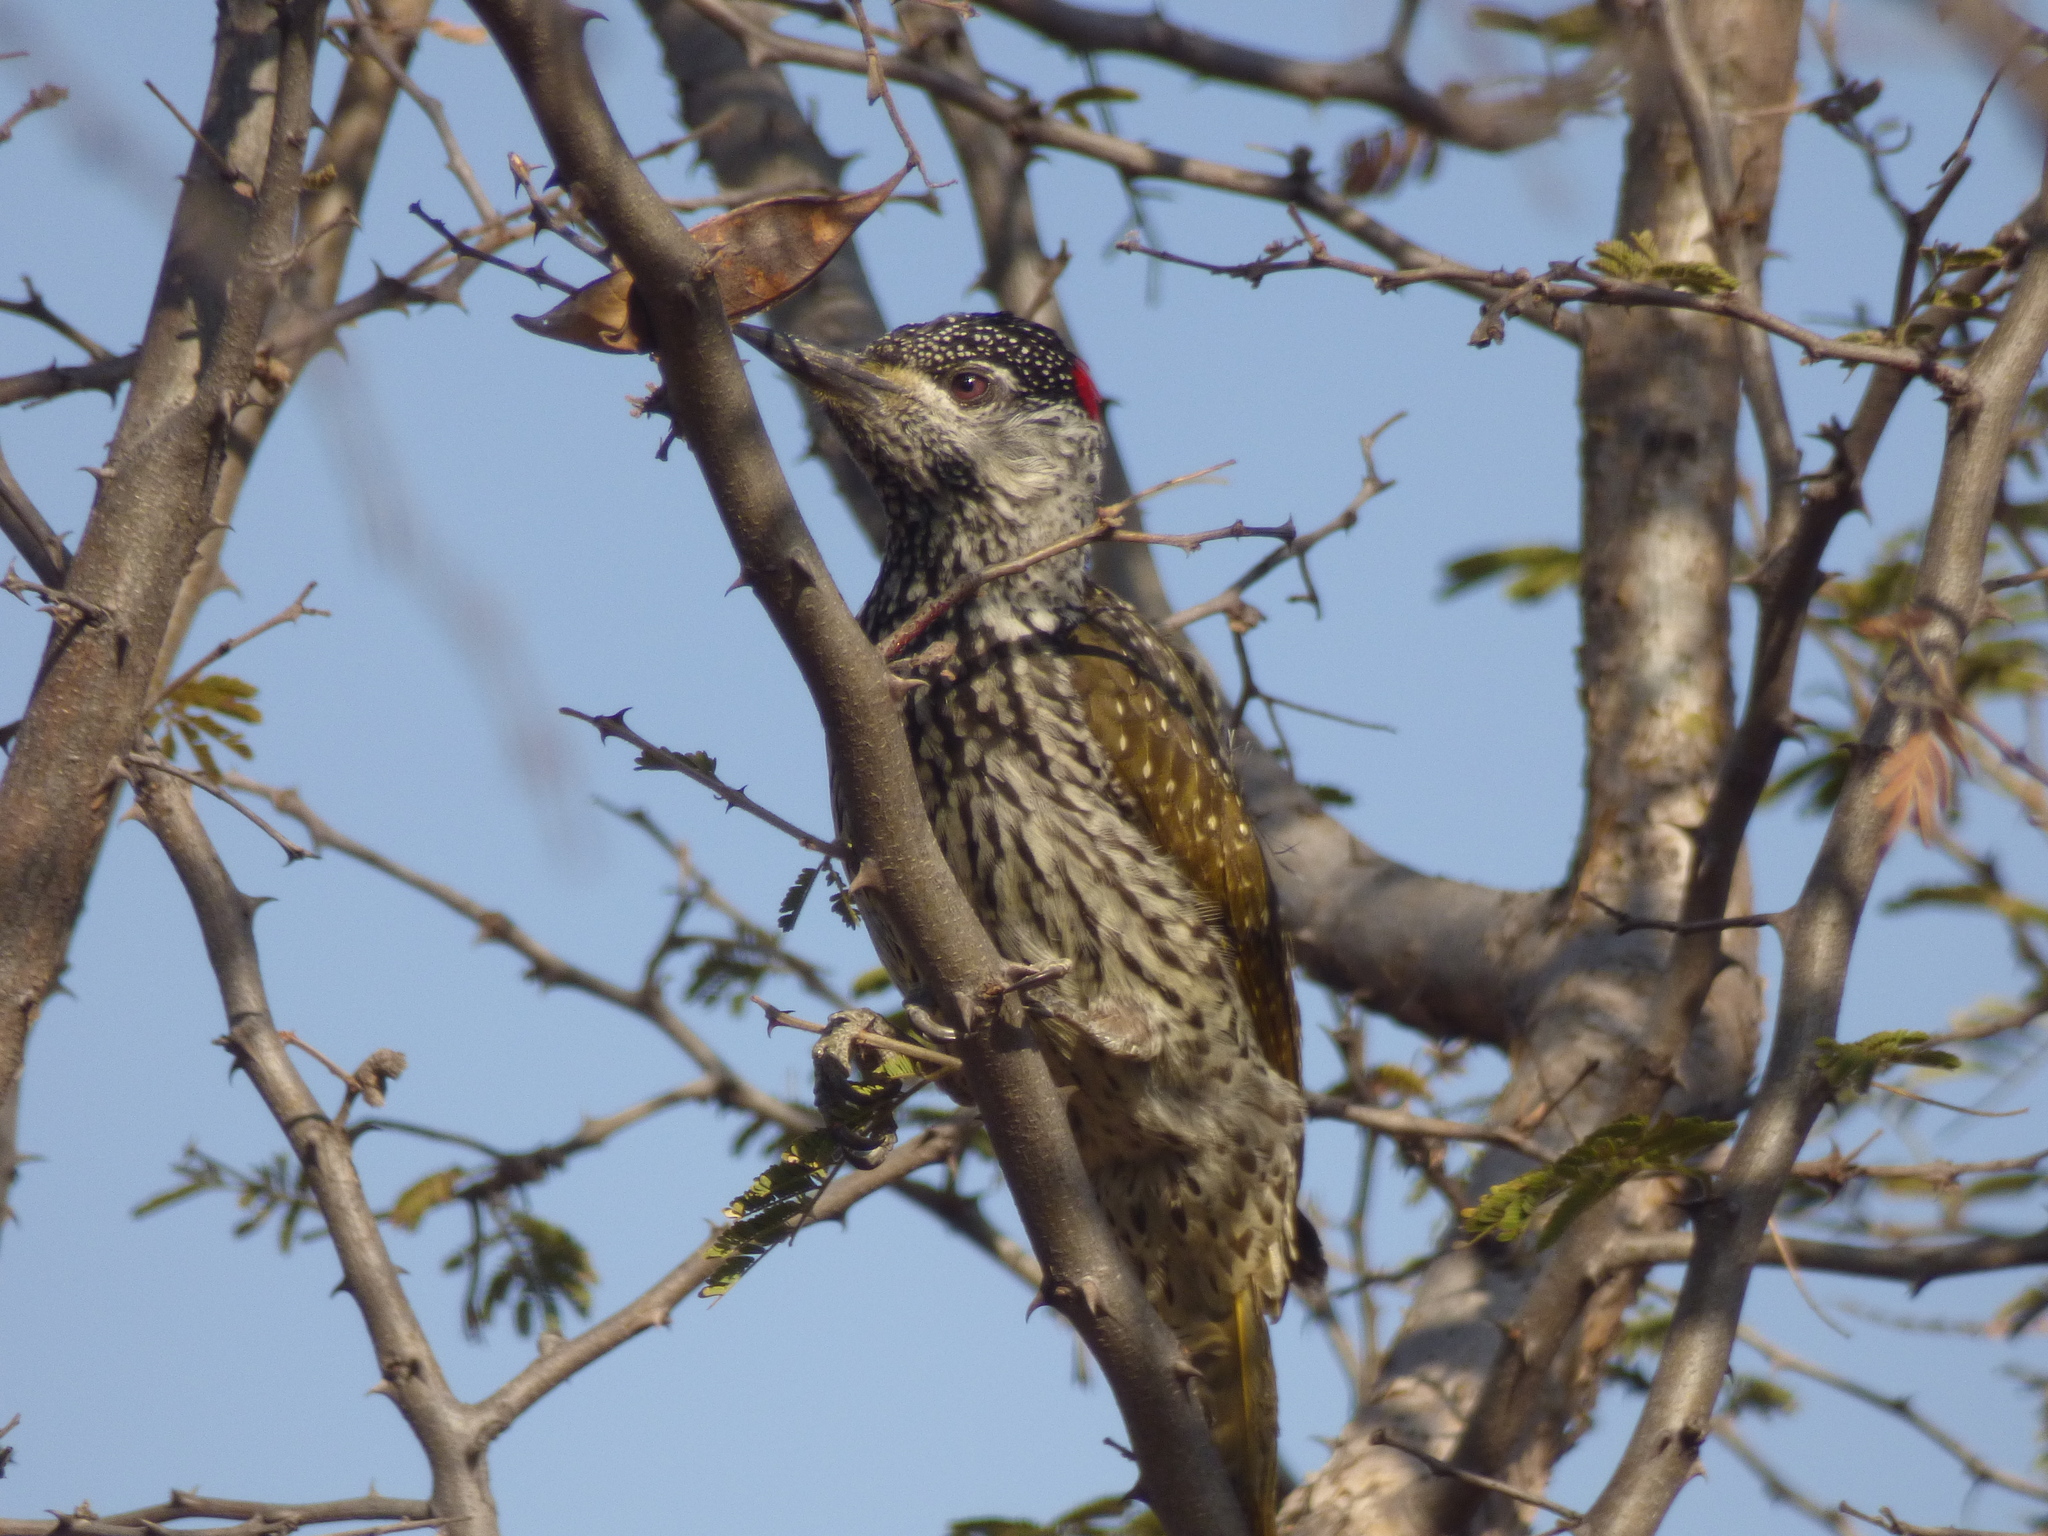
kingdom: Animalia
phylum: Chordata
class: Aves
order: Piciformes
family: Picidae
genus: Campethera
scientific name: Campethera abingoni
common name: Golden-tailed woodpecker
